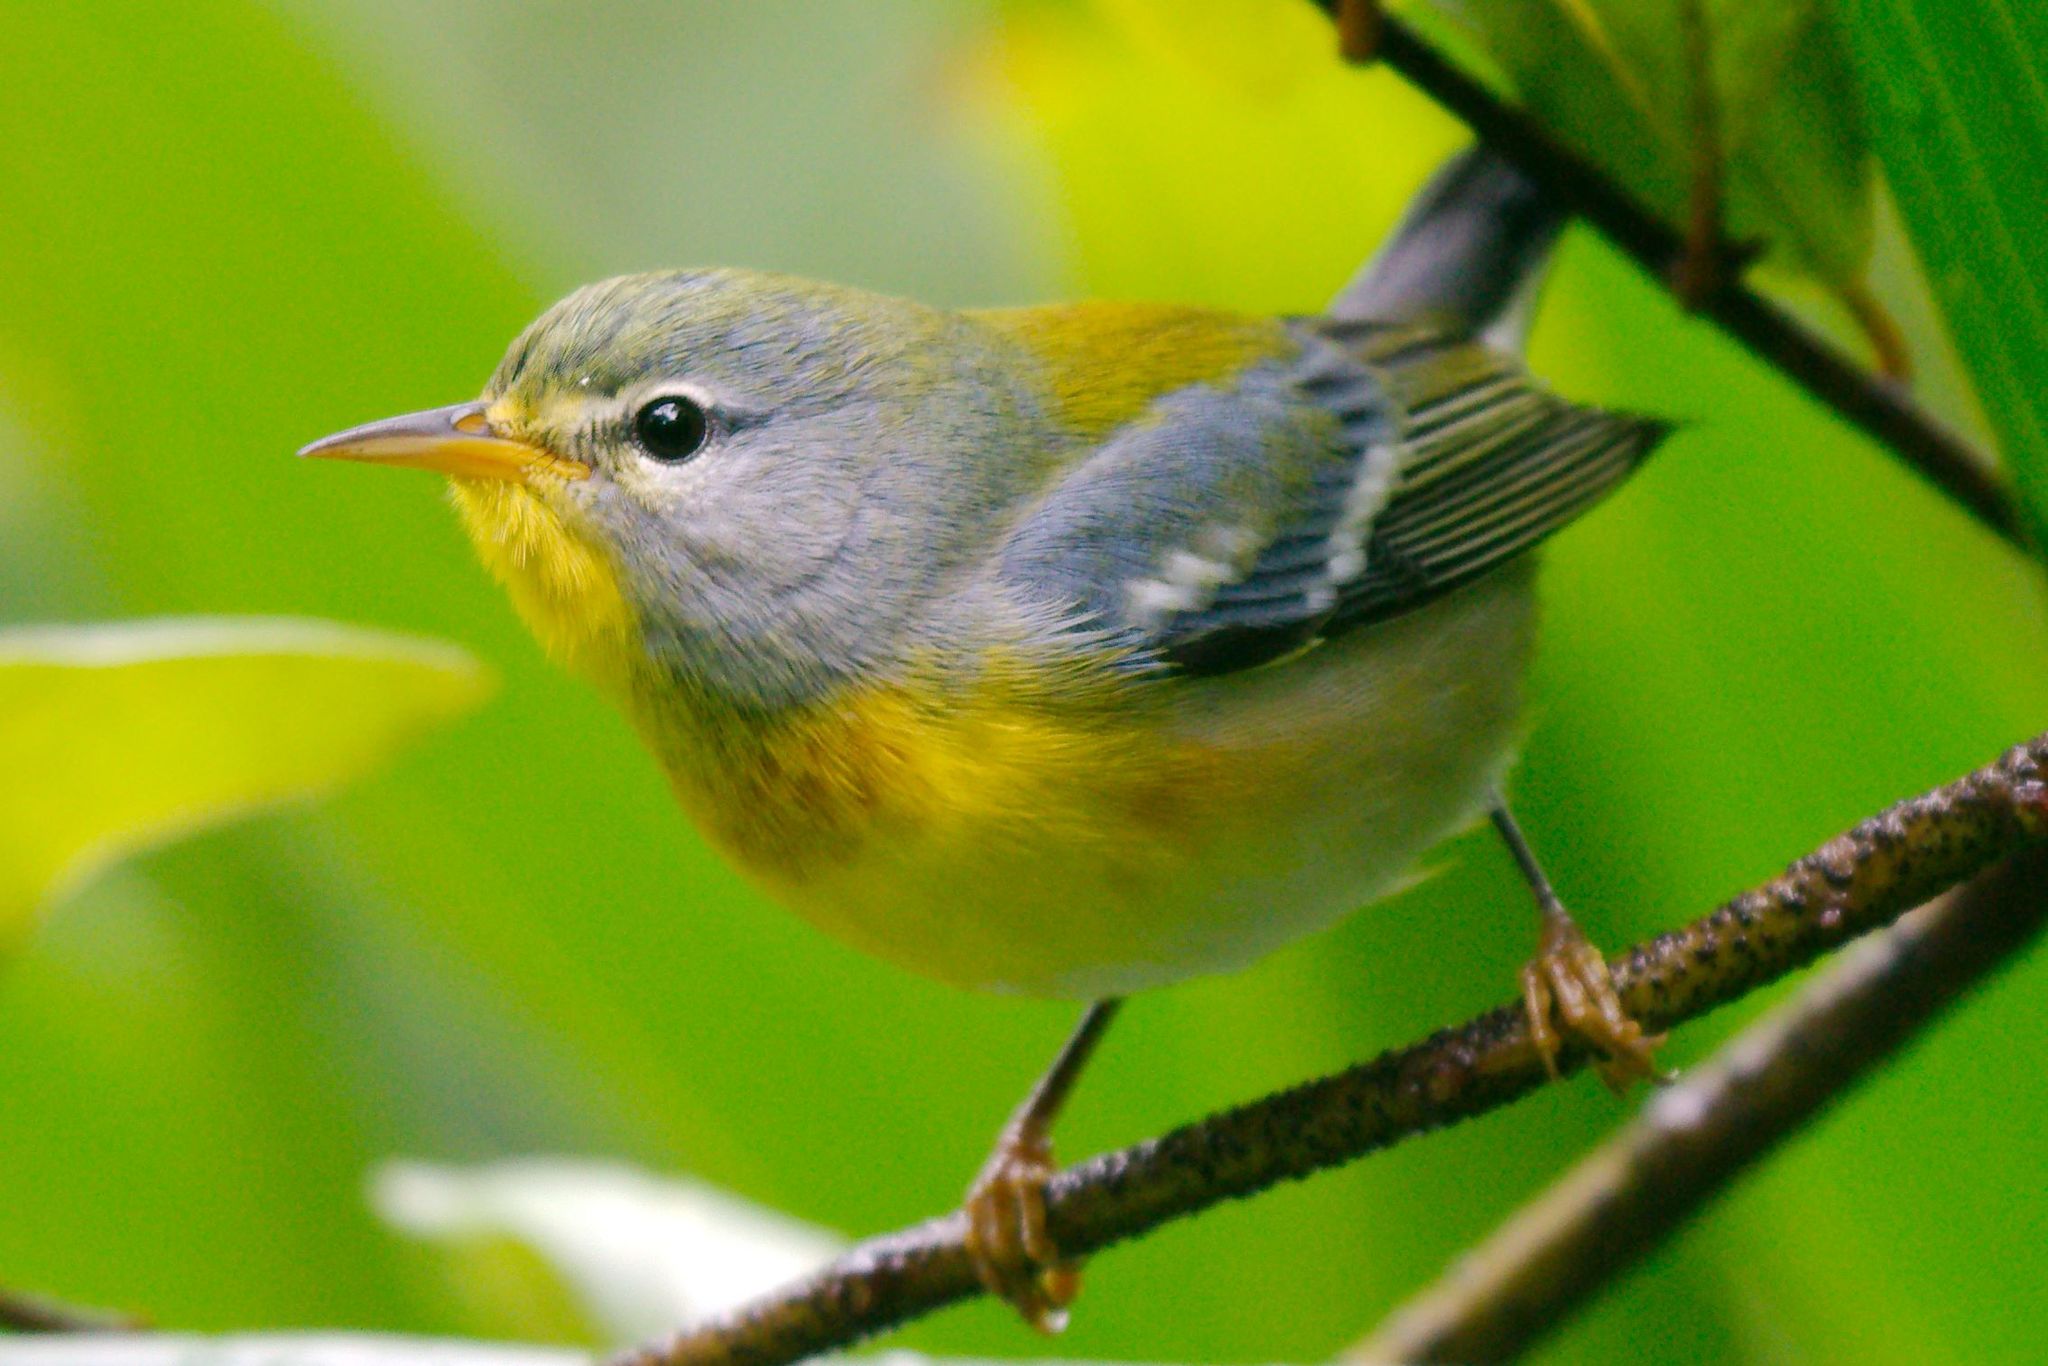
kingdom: Animalia
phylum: Chordata
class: Aves
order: Passeriformes
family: Parulidae
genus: Setophaga
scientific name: Setophaga americana
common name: Northern parula
